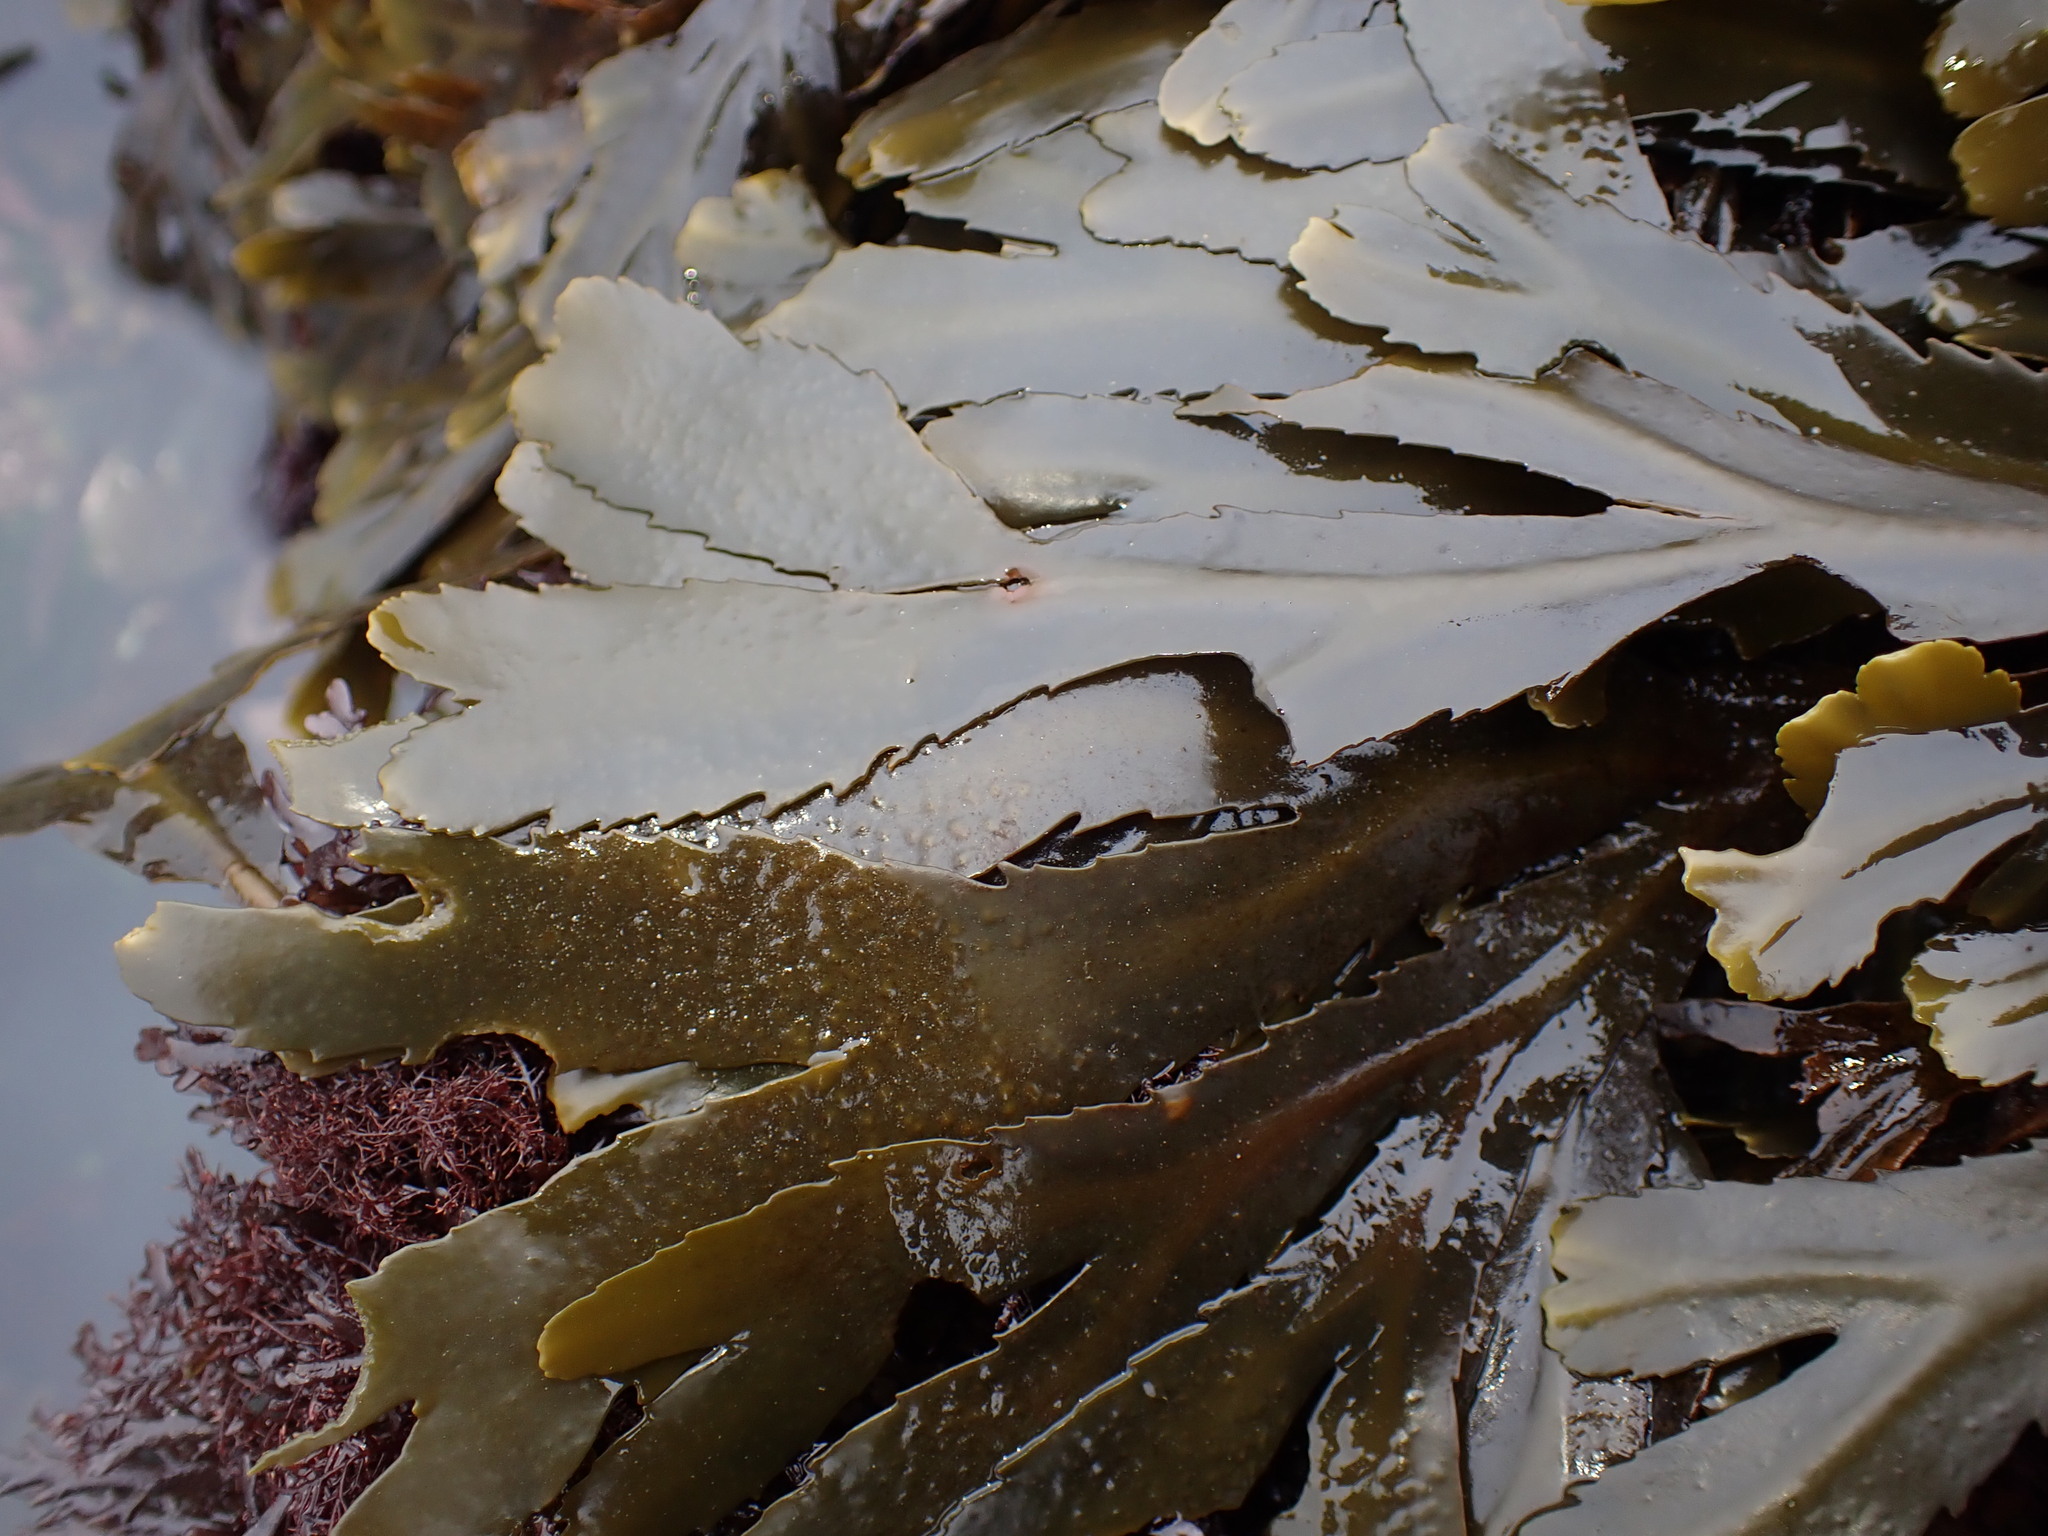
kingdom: Chromista
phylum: Ochrophyta
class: Phaeophyceae
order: Fucales
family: Fucaceae
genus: Fucus
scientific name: Fucus serratus
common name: Toothed wrack
